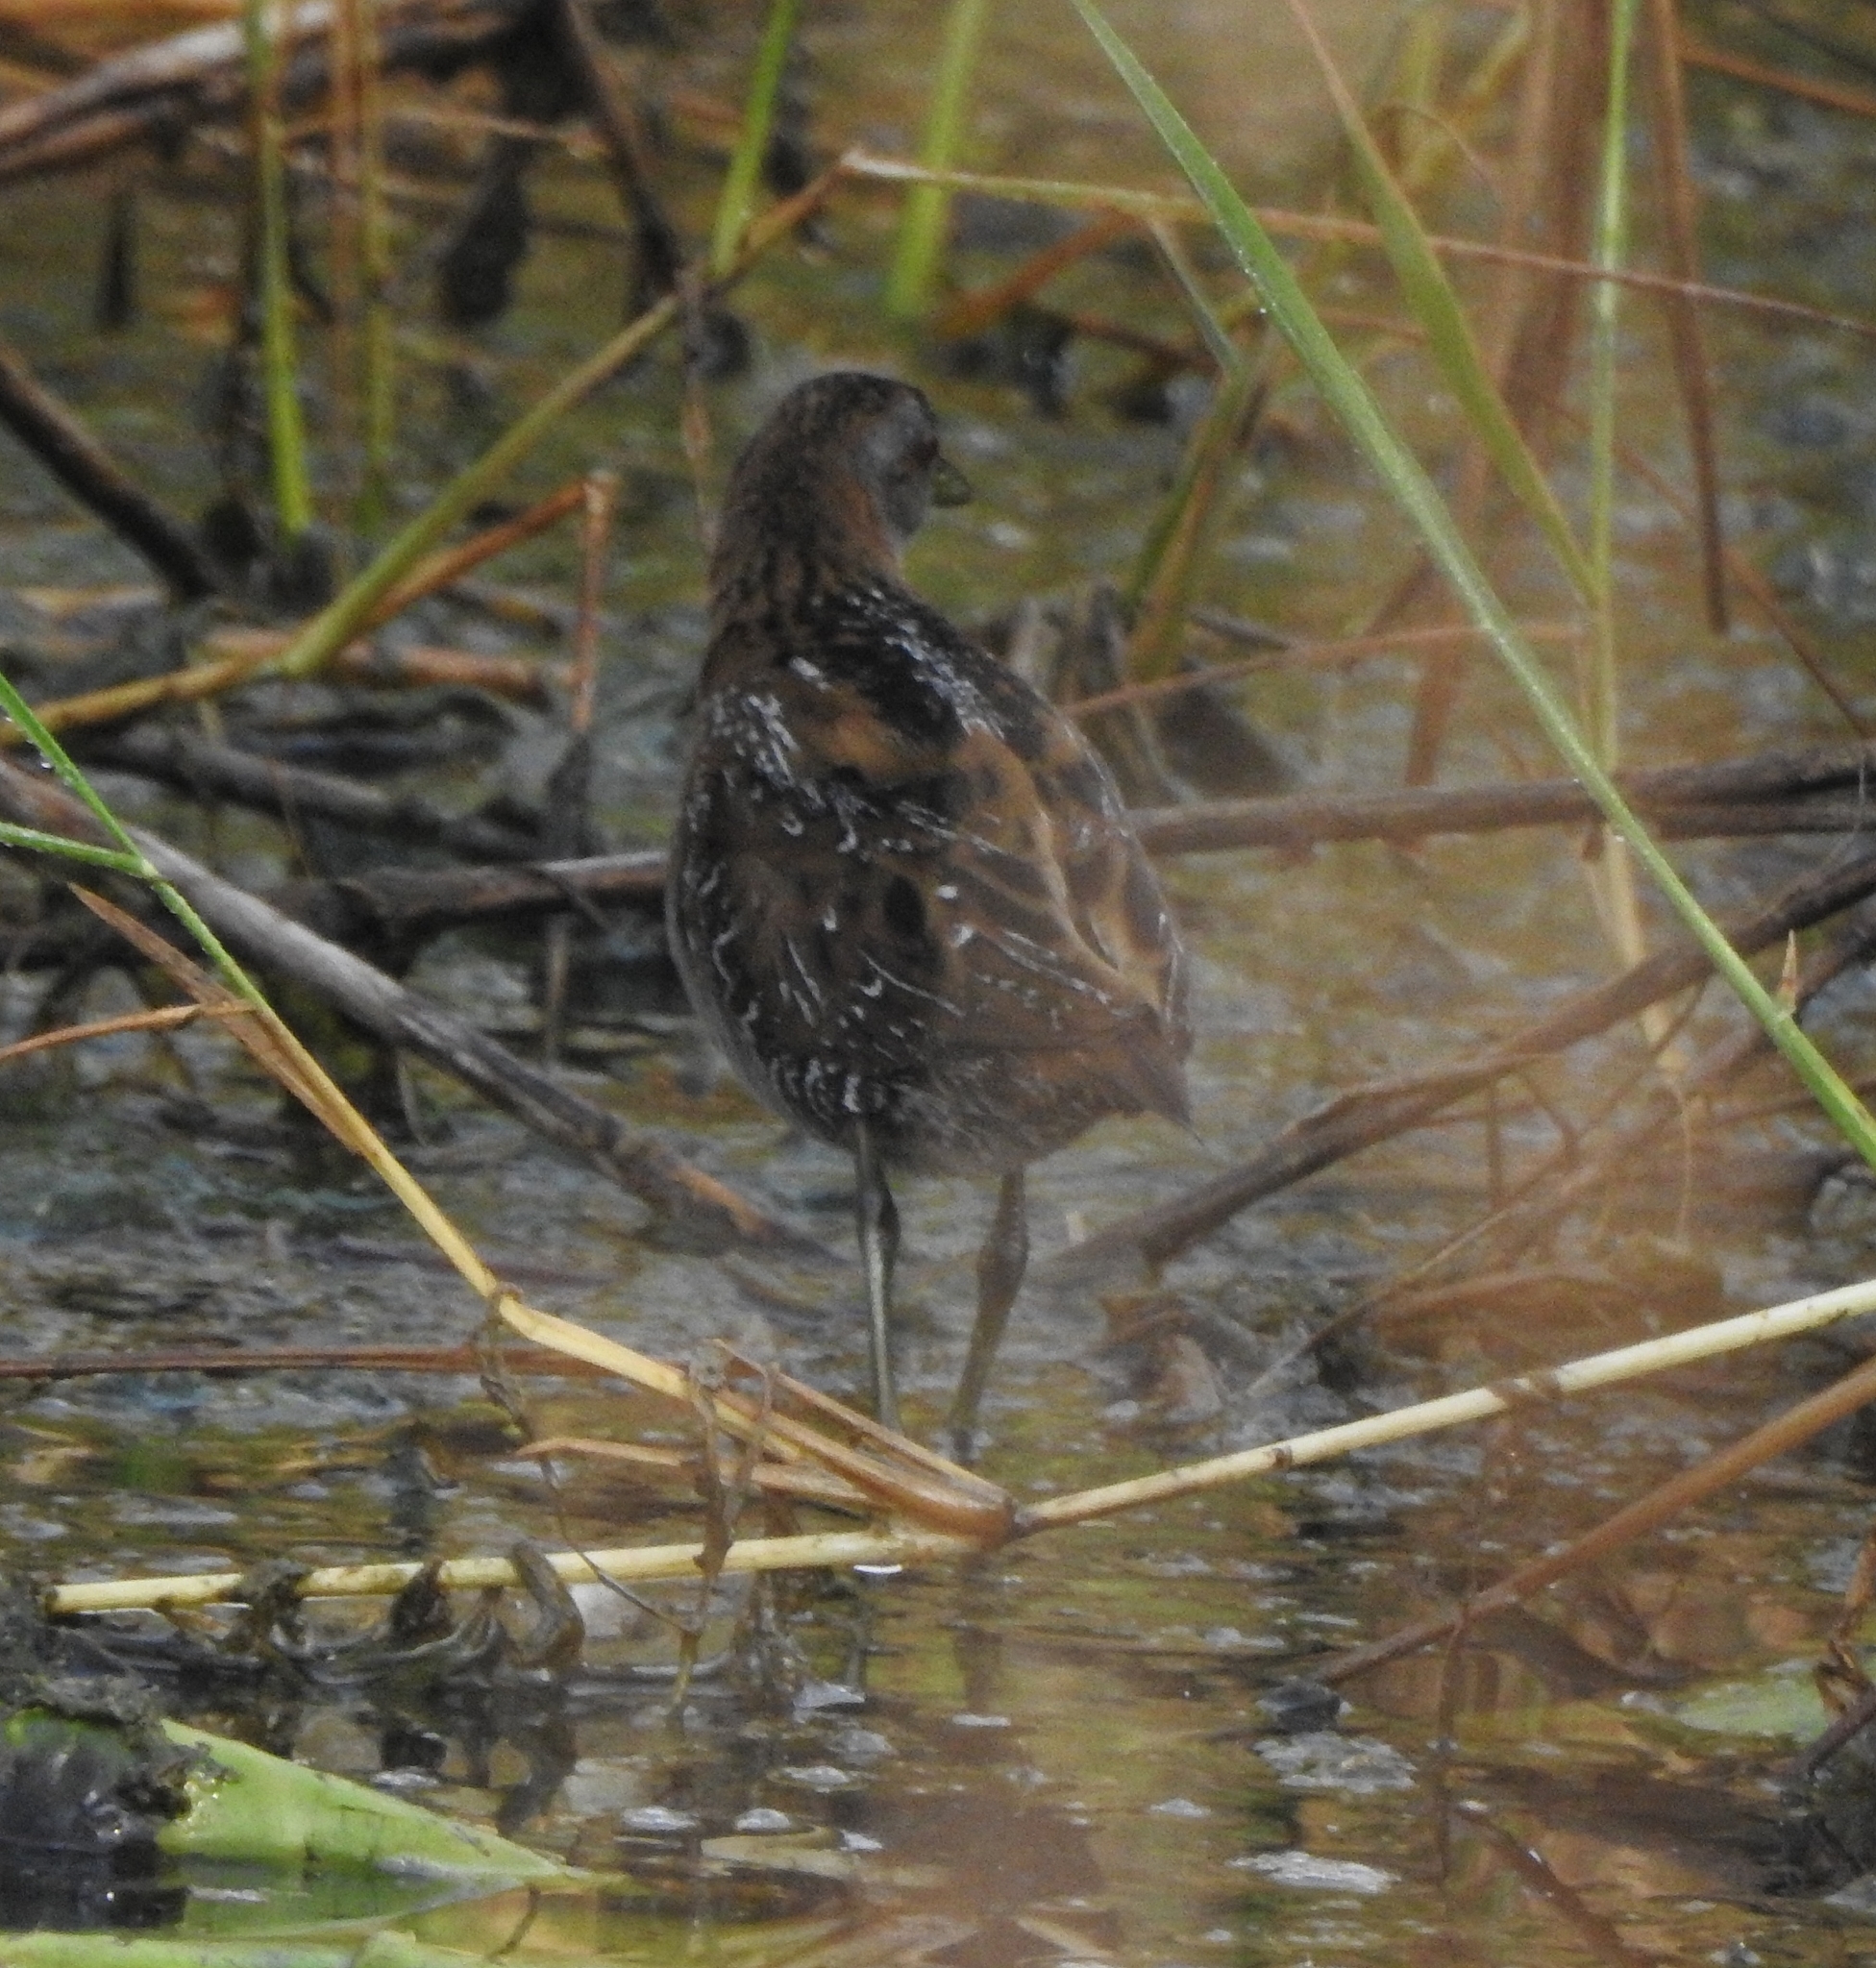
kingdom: Animalia
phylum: Chordata
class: Aves
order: Gruiformes
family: Rallidae
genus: Porzana
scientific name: Porzana pusilla
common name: Baillon's crake
